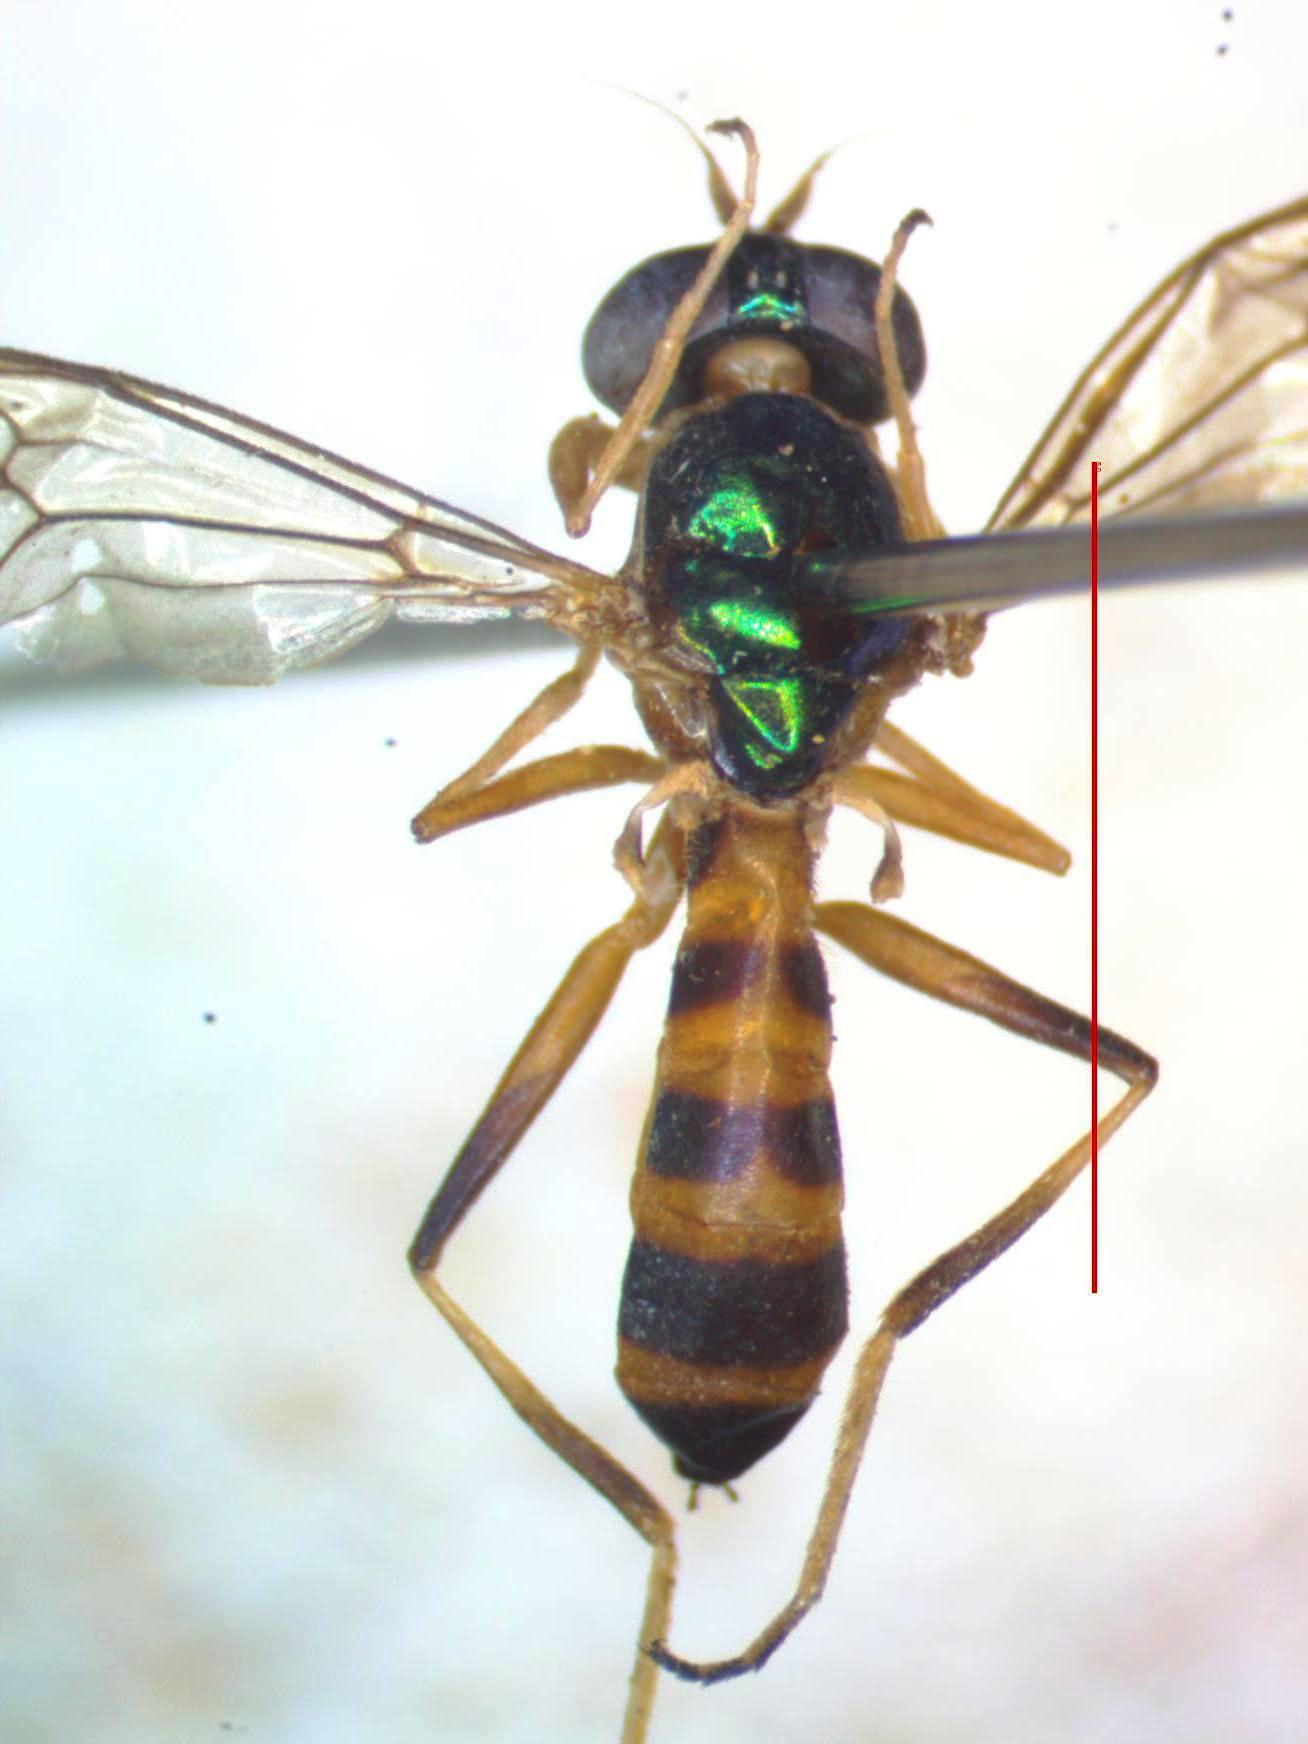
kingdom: Animalia
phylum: Arthropoda
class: Insecta
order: Diptera
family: Stratiomyidae
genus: Merosargus
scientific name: Merosargus bequaerti
